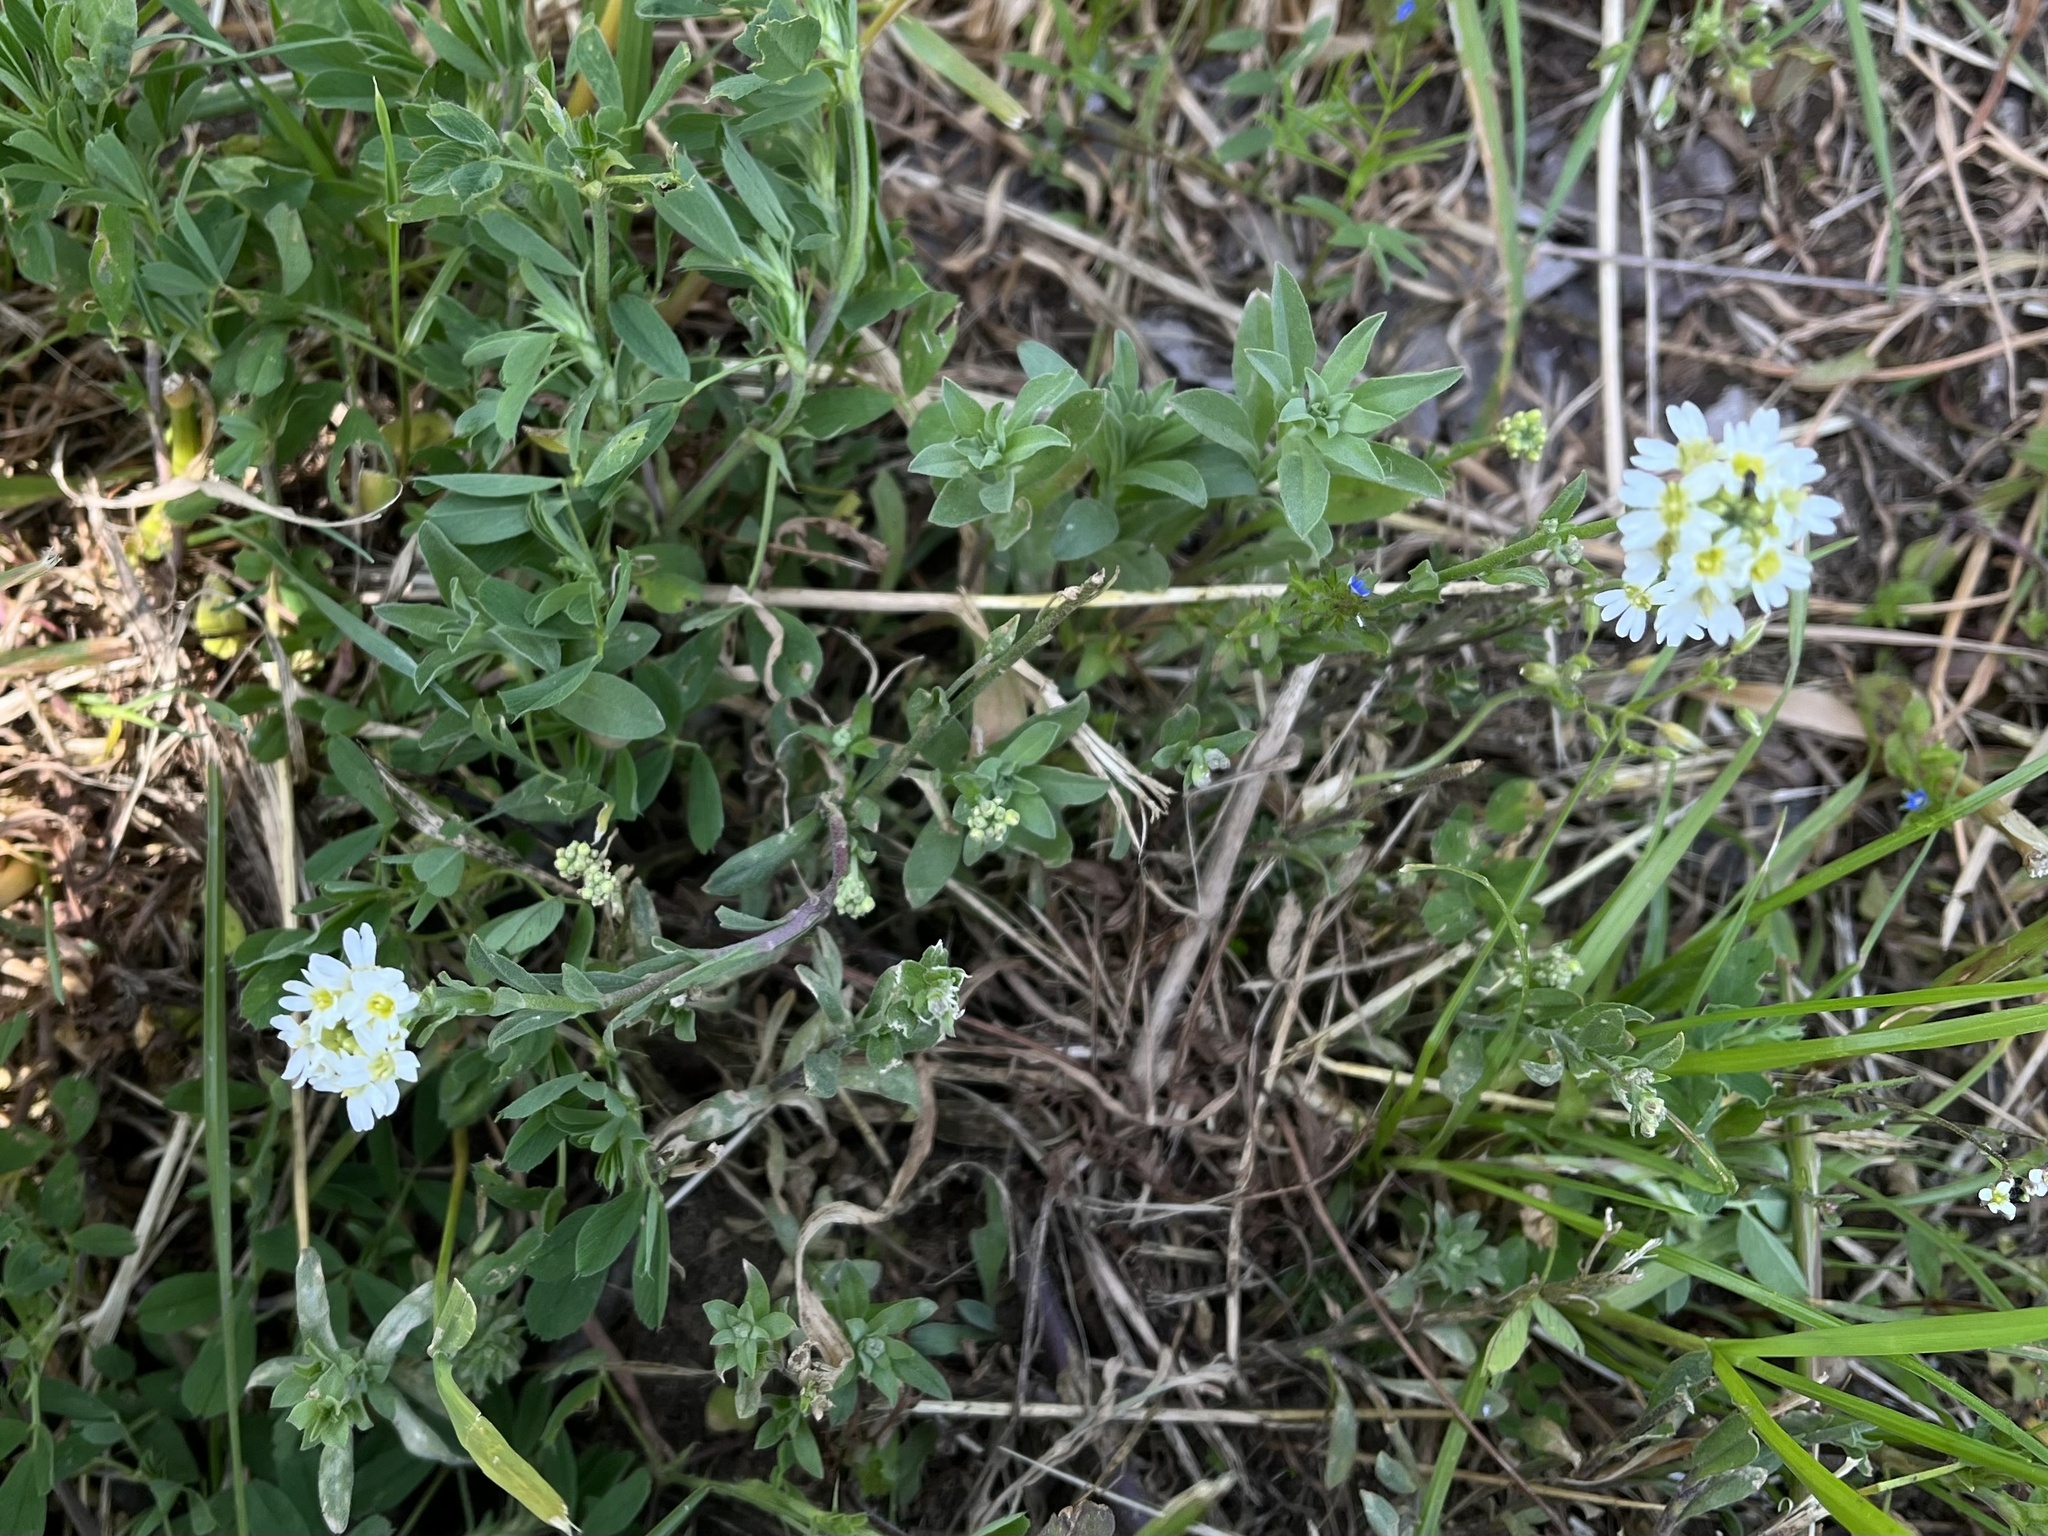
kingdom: Plantae
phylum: Tracheophyta
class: Magnoliopsida
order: Brassicales
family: Brassicaceae
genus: Berteroa
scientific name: Berteroa incana
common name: Hoary alison
